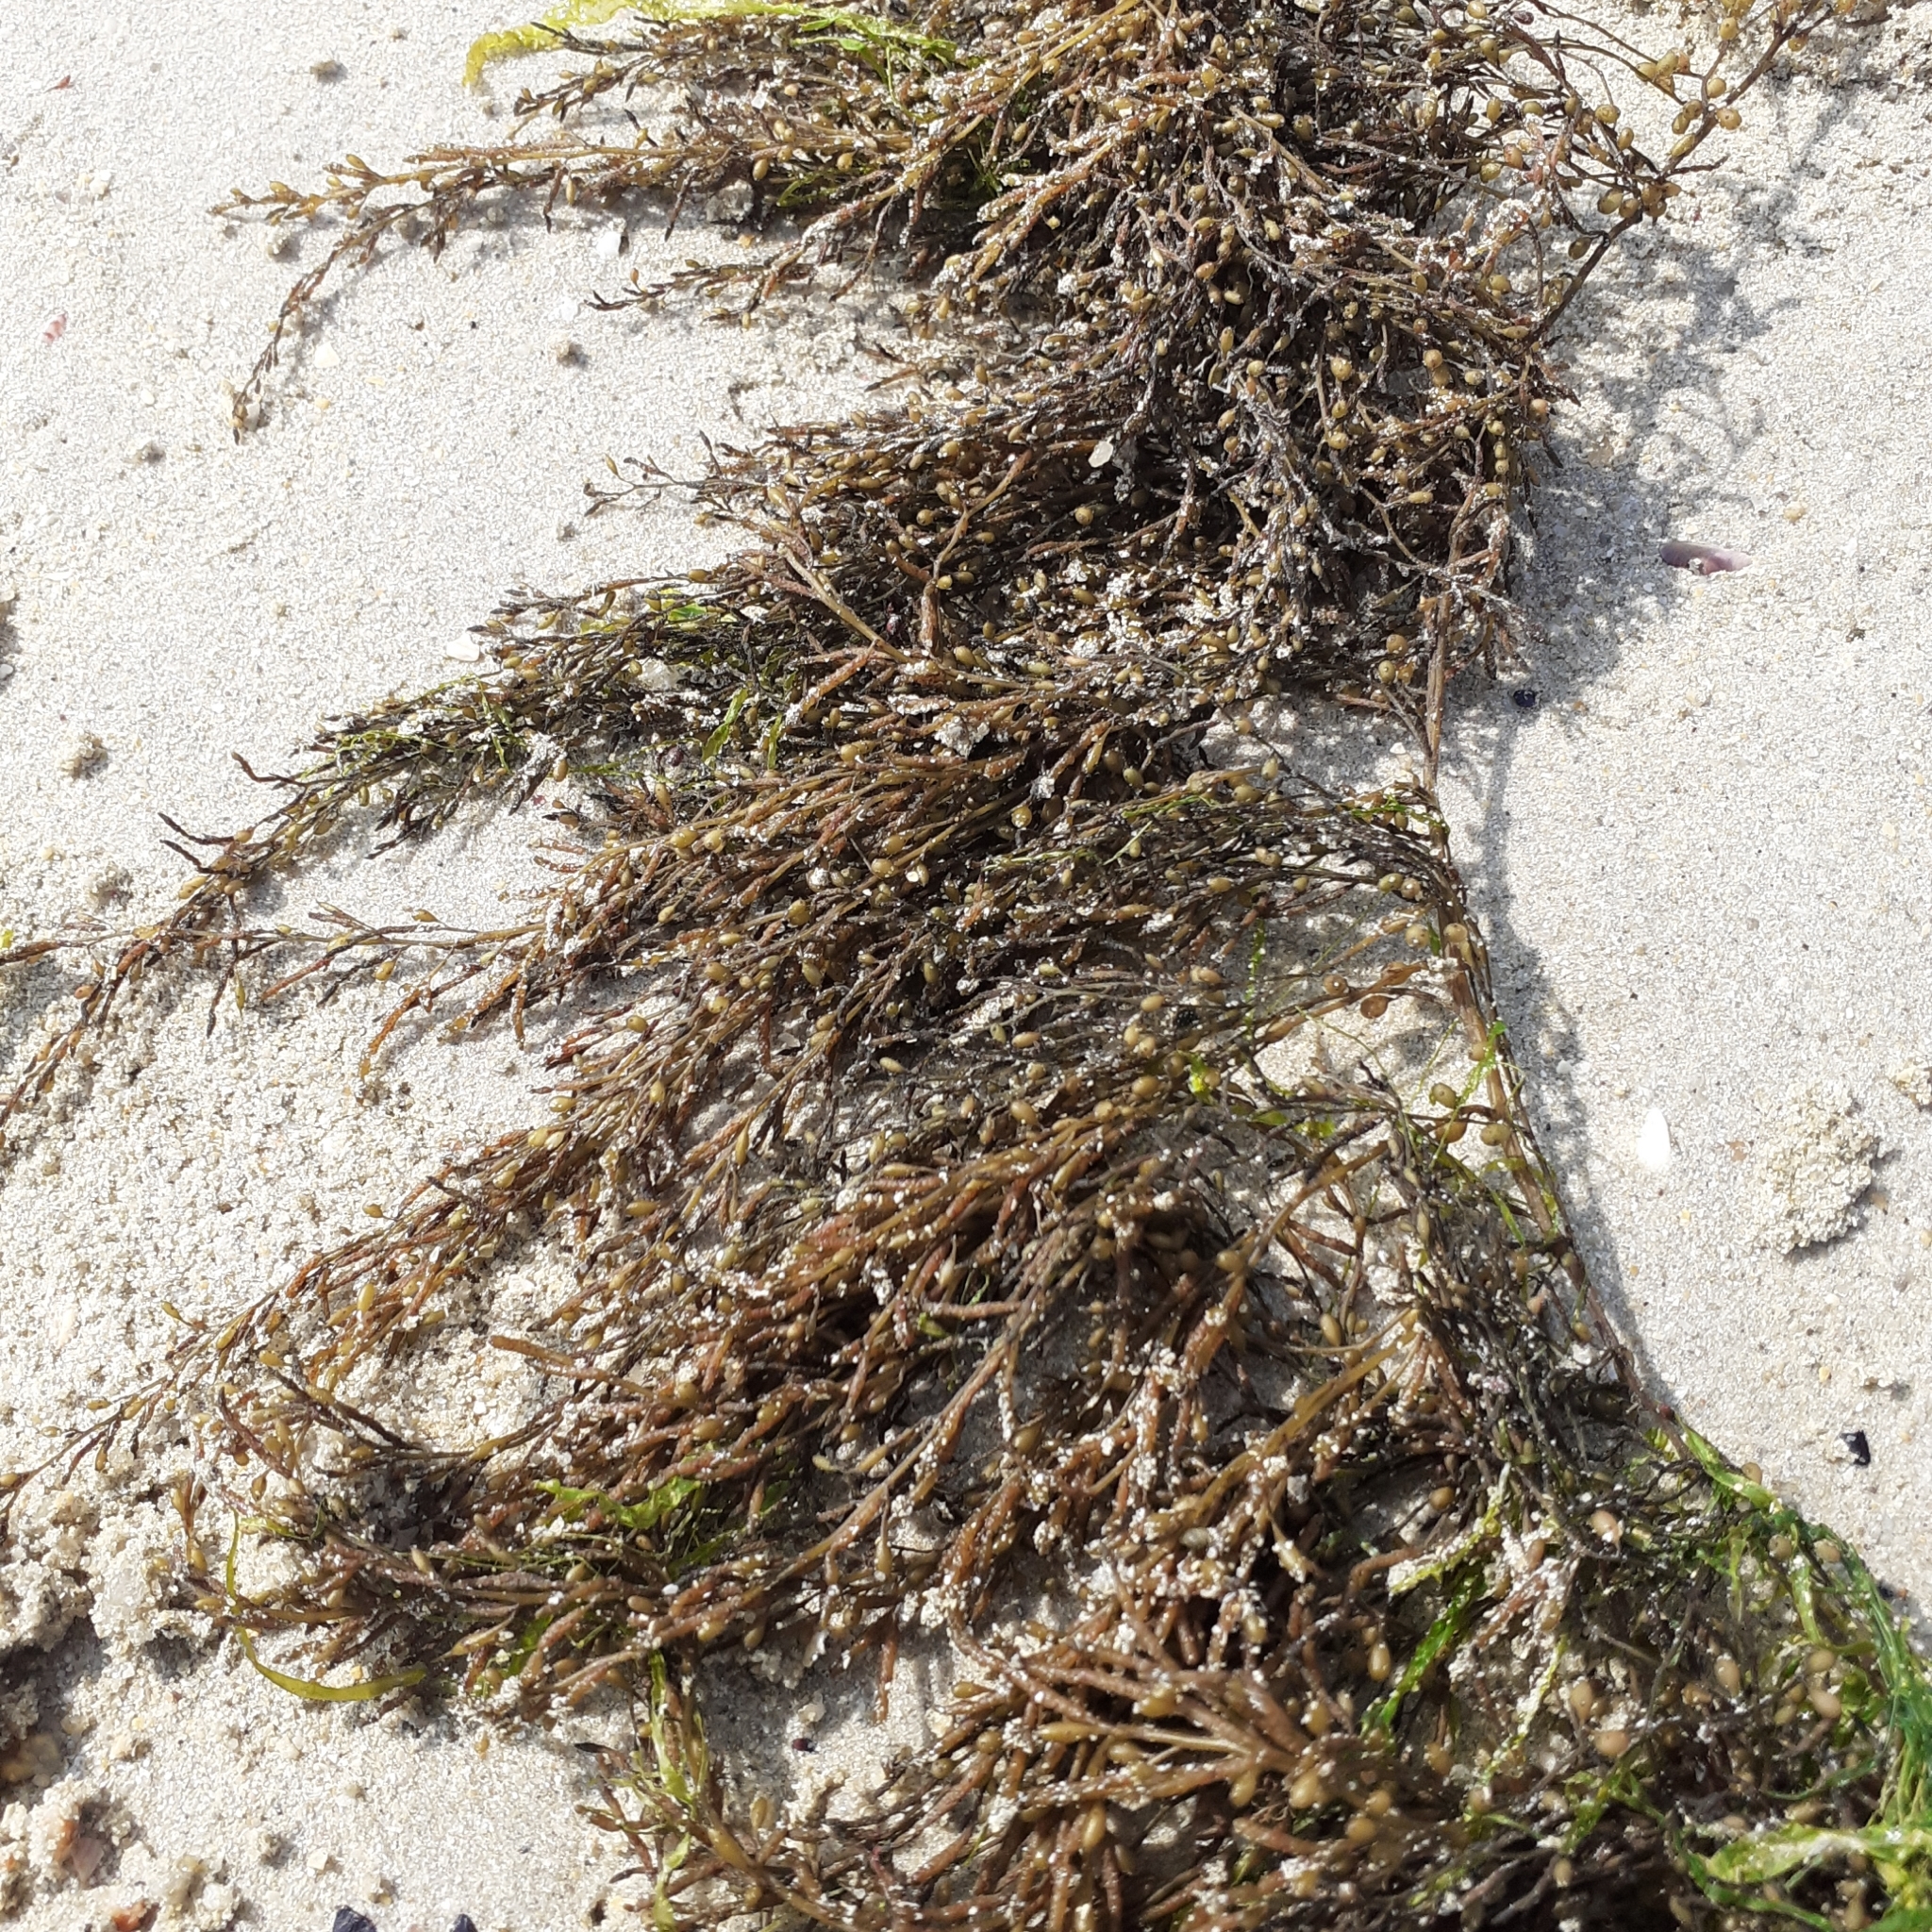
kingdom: Chromista
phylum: Ochrophyta
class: Phaeophyceae
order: Fucales
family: Sargassaceae
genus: Sargassum
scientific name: Sargassum muticum
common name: Japweed
